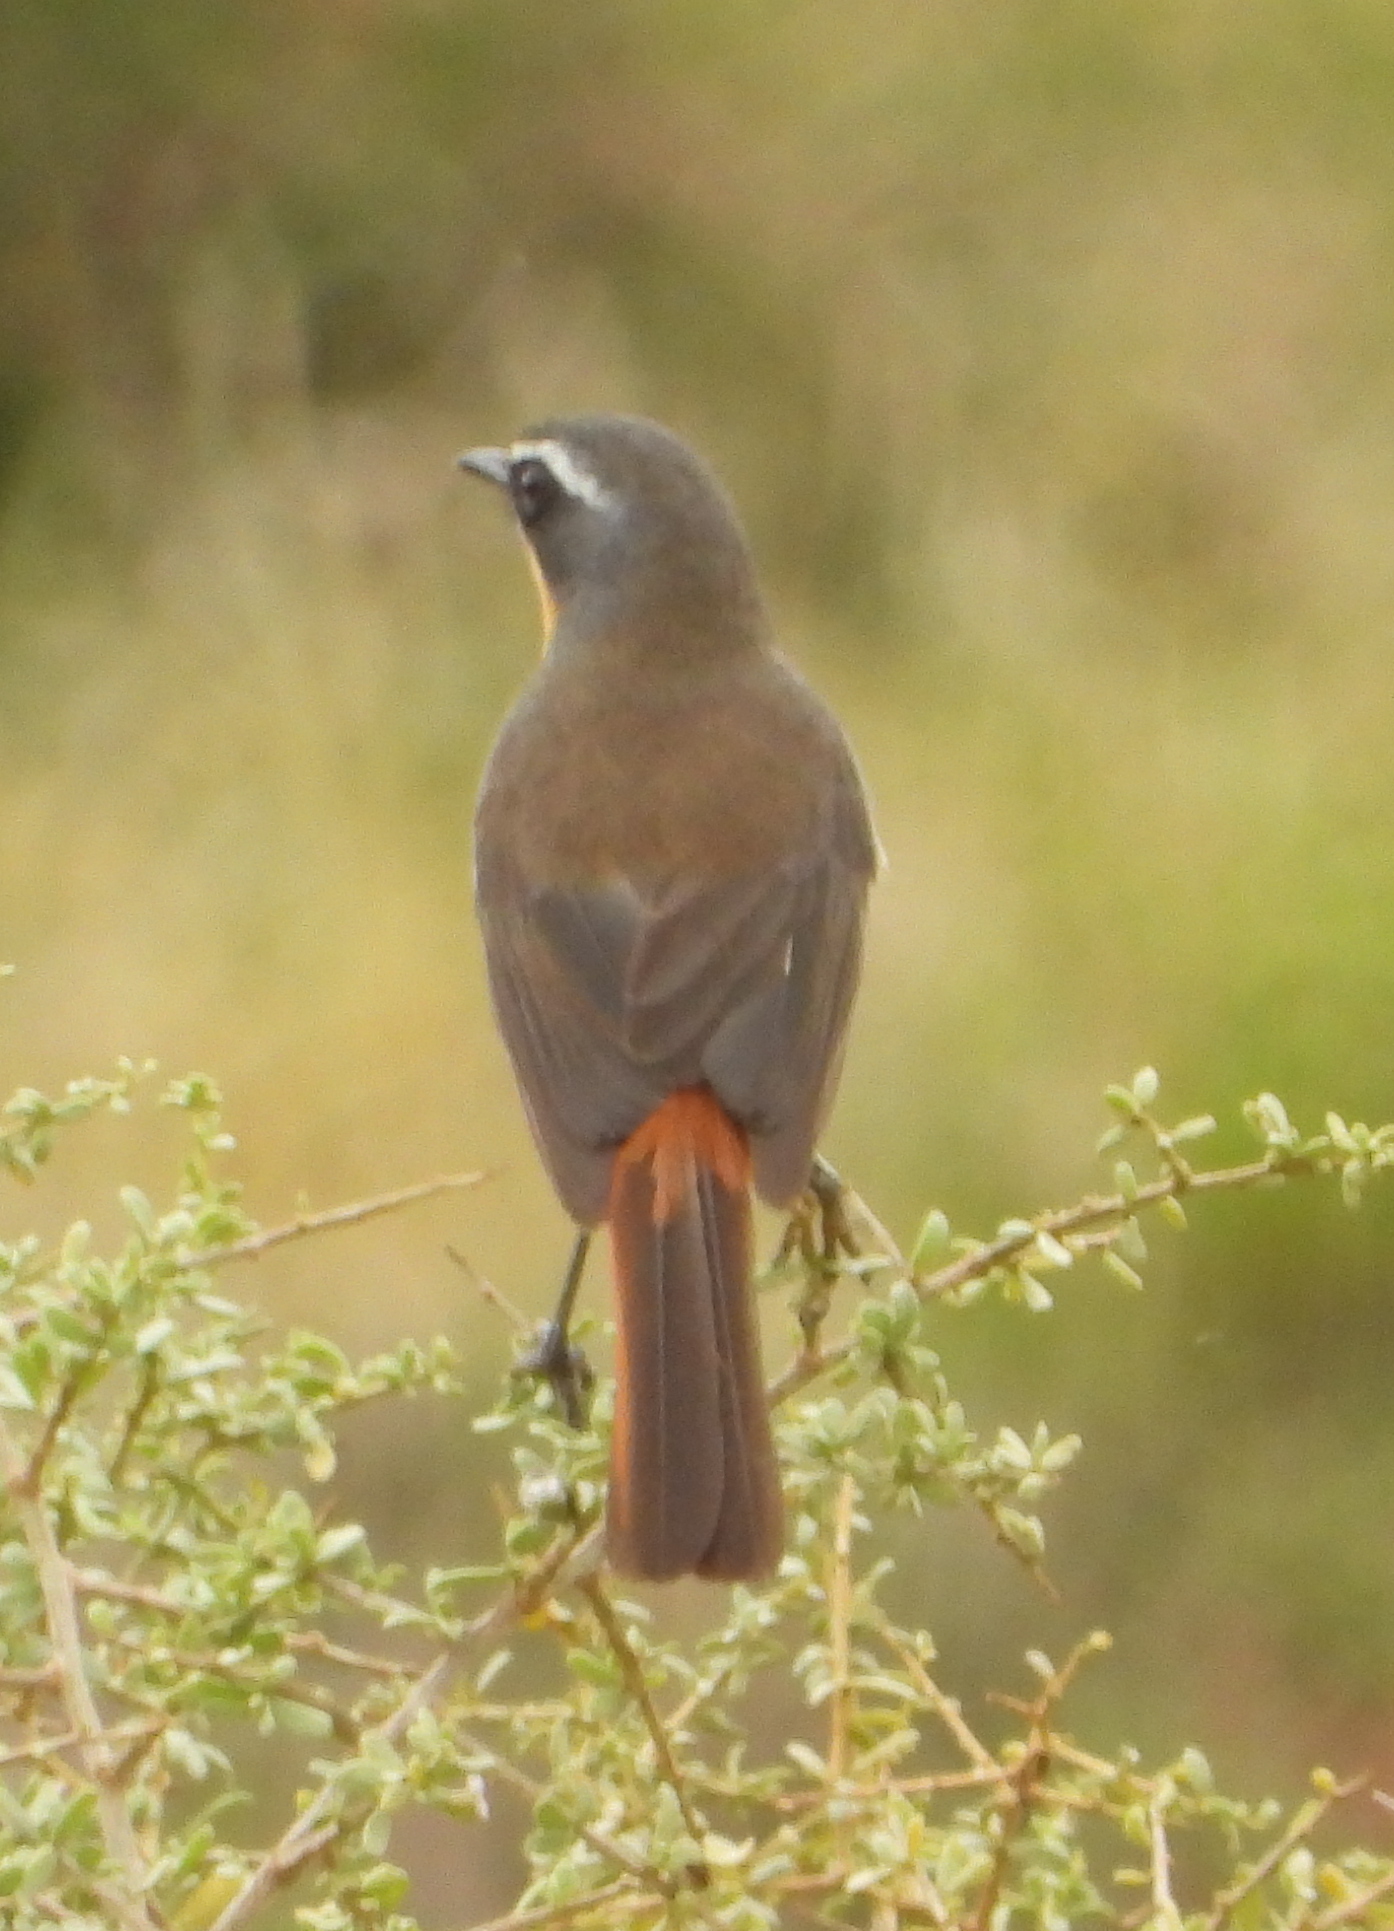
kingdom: Animalia
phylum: Chordata
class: Aves
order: Passeriformes
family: Muscicapidae
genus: Cossypha
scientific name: Cossypha caffra
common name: Cape robin-chat
